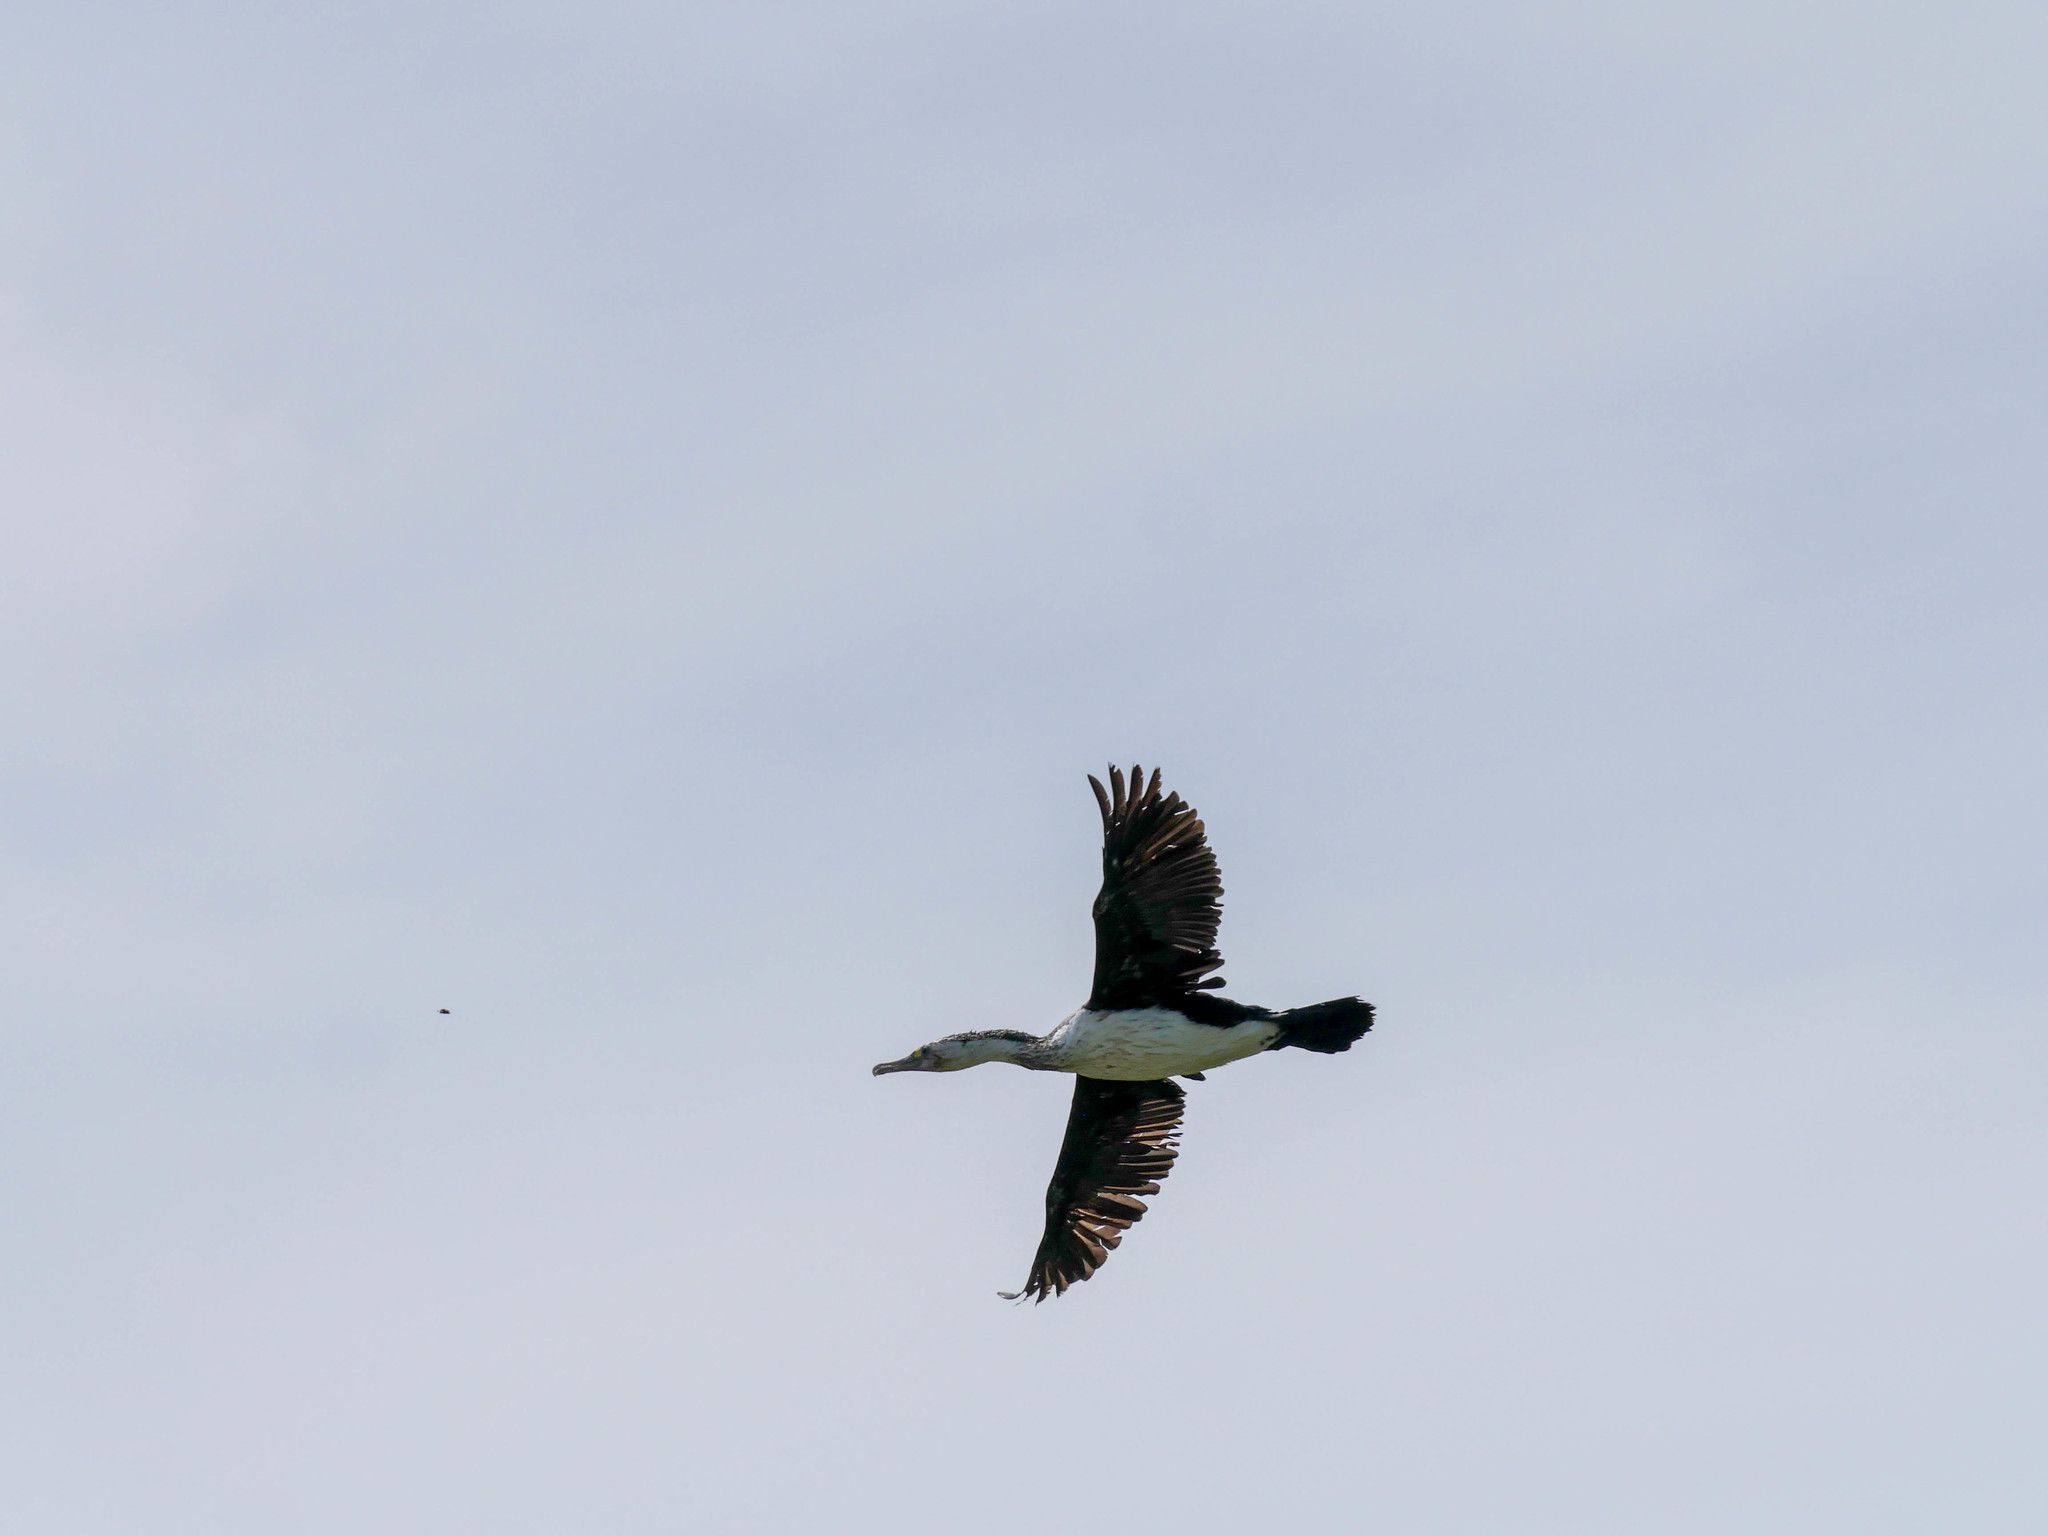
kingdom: Animalia
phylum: Chordata
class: Aves
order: Suliformes
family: Phalacrocoracidae
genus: Phalacrocorax
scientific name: Phalacrocorax varius
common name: Pied cormorant
